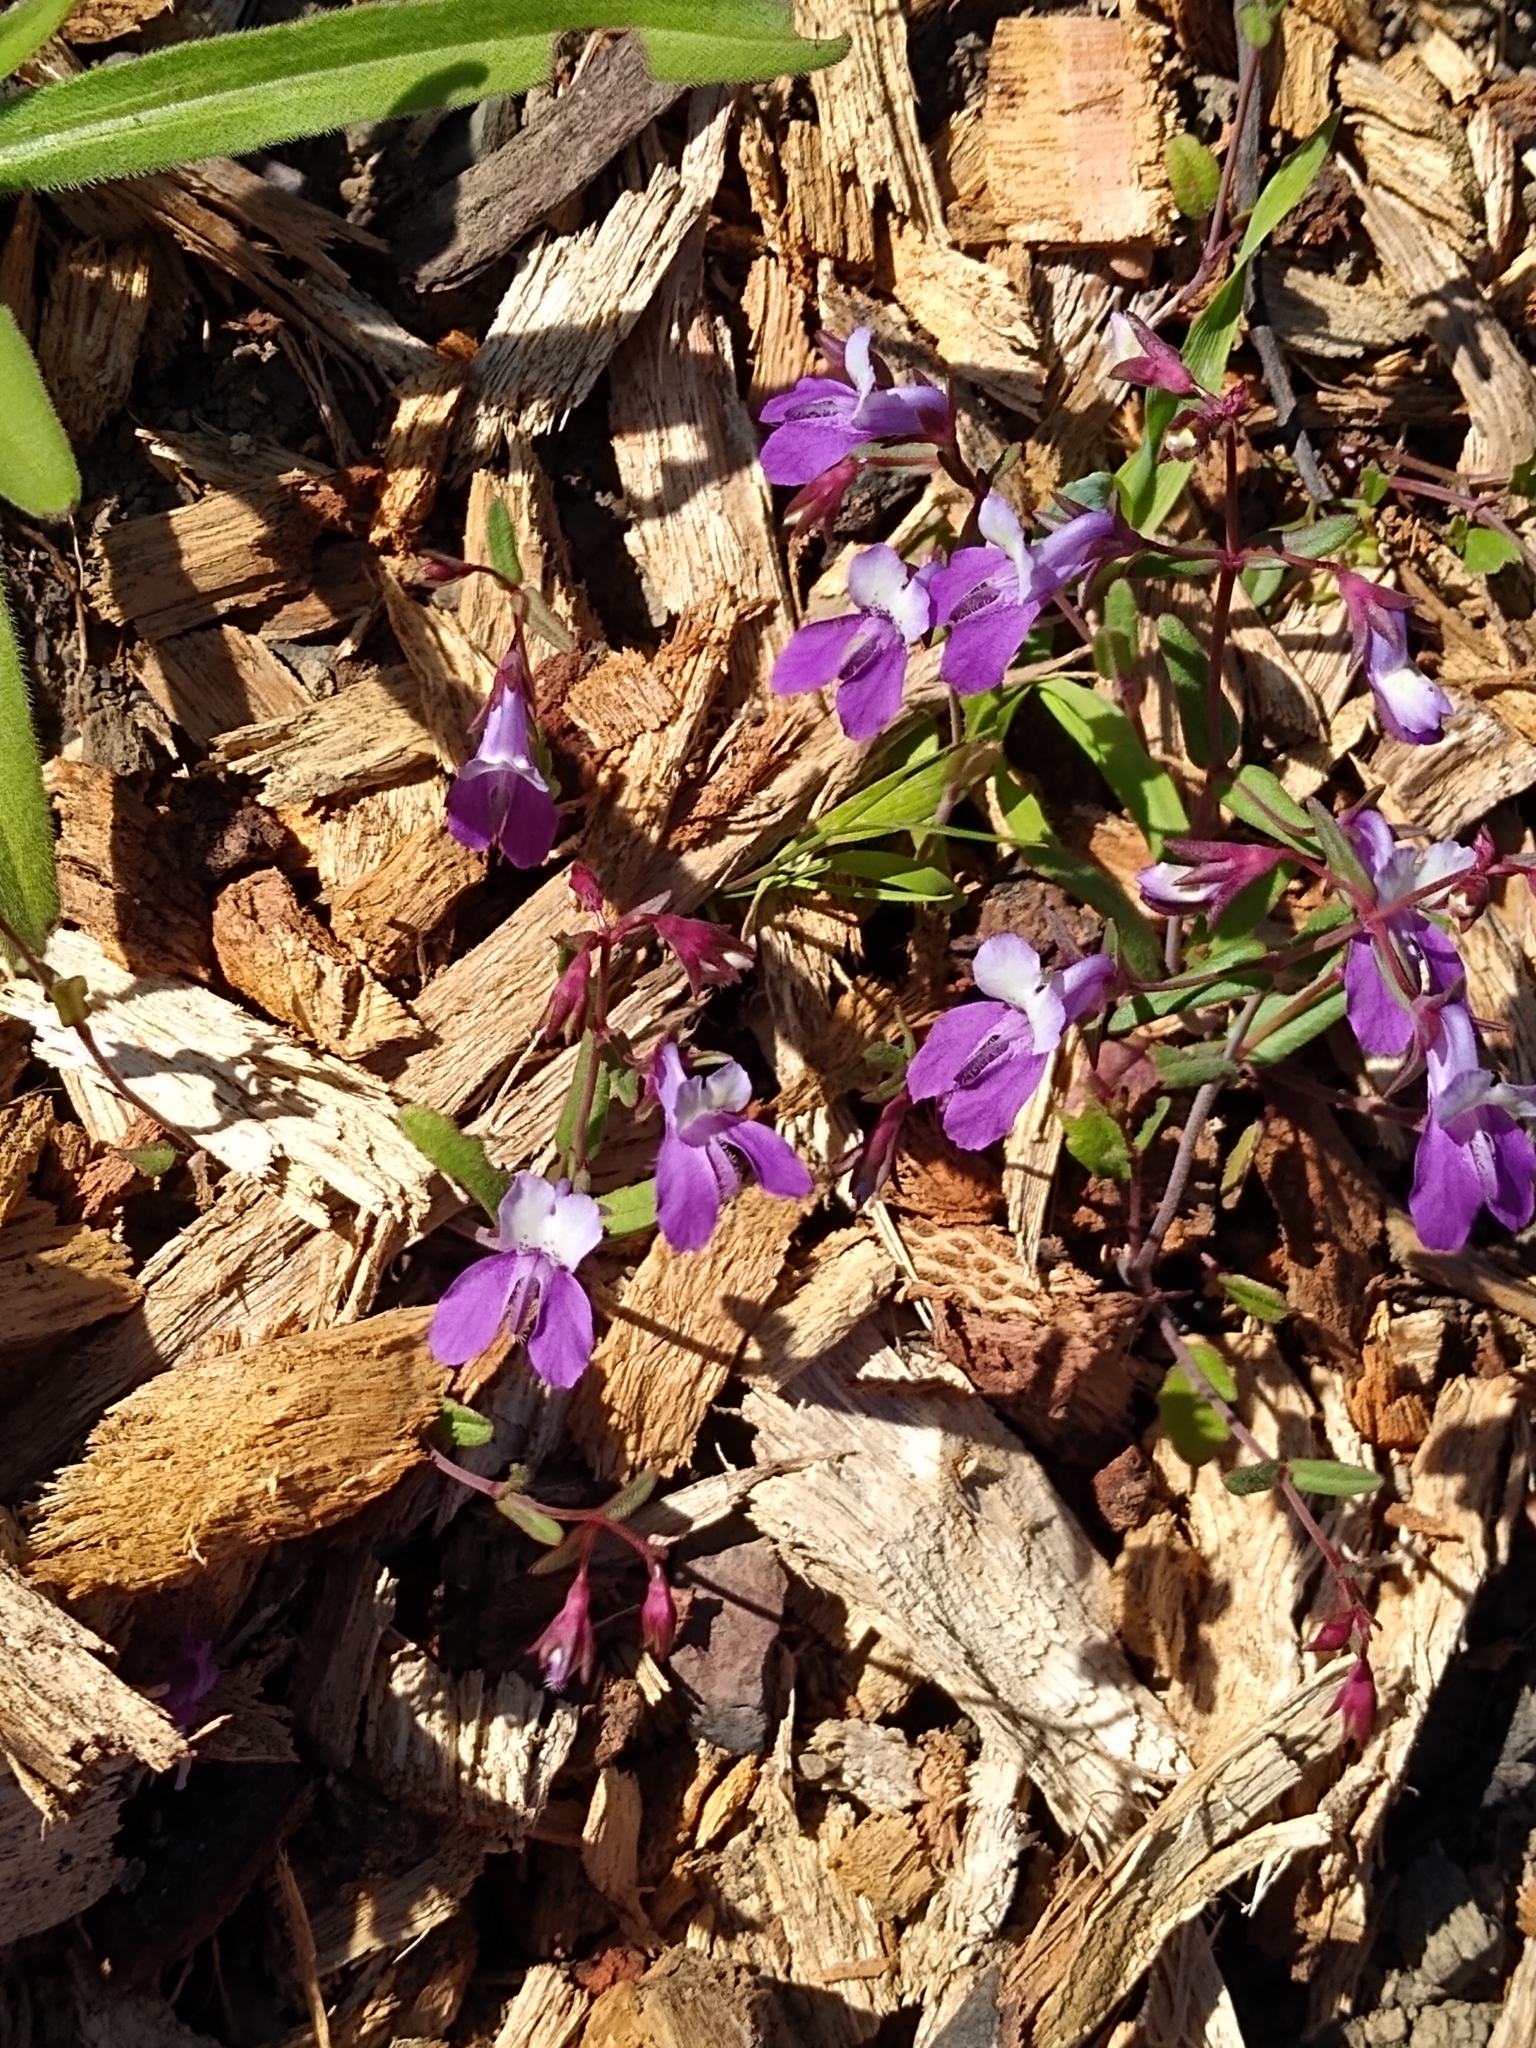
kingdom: Plantae
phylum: Tracheophyta
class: Magnoliopsida
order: Lamiales
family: Plantaginaceae
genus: Collinsia
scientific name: Collinsia heterophylla
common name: Chinese-houses
